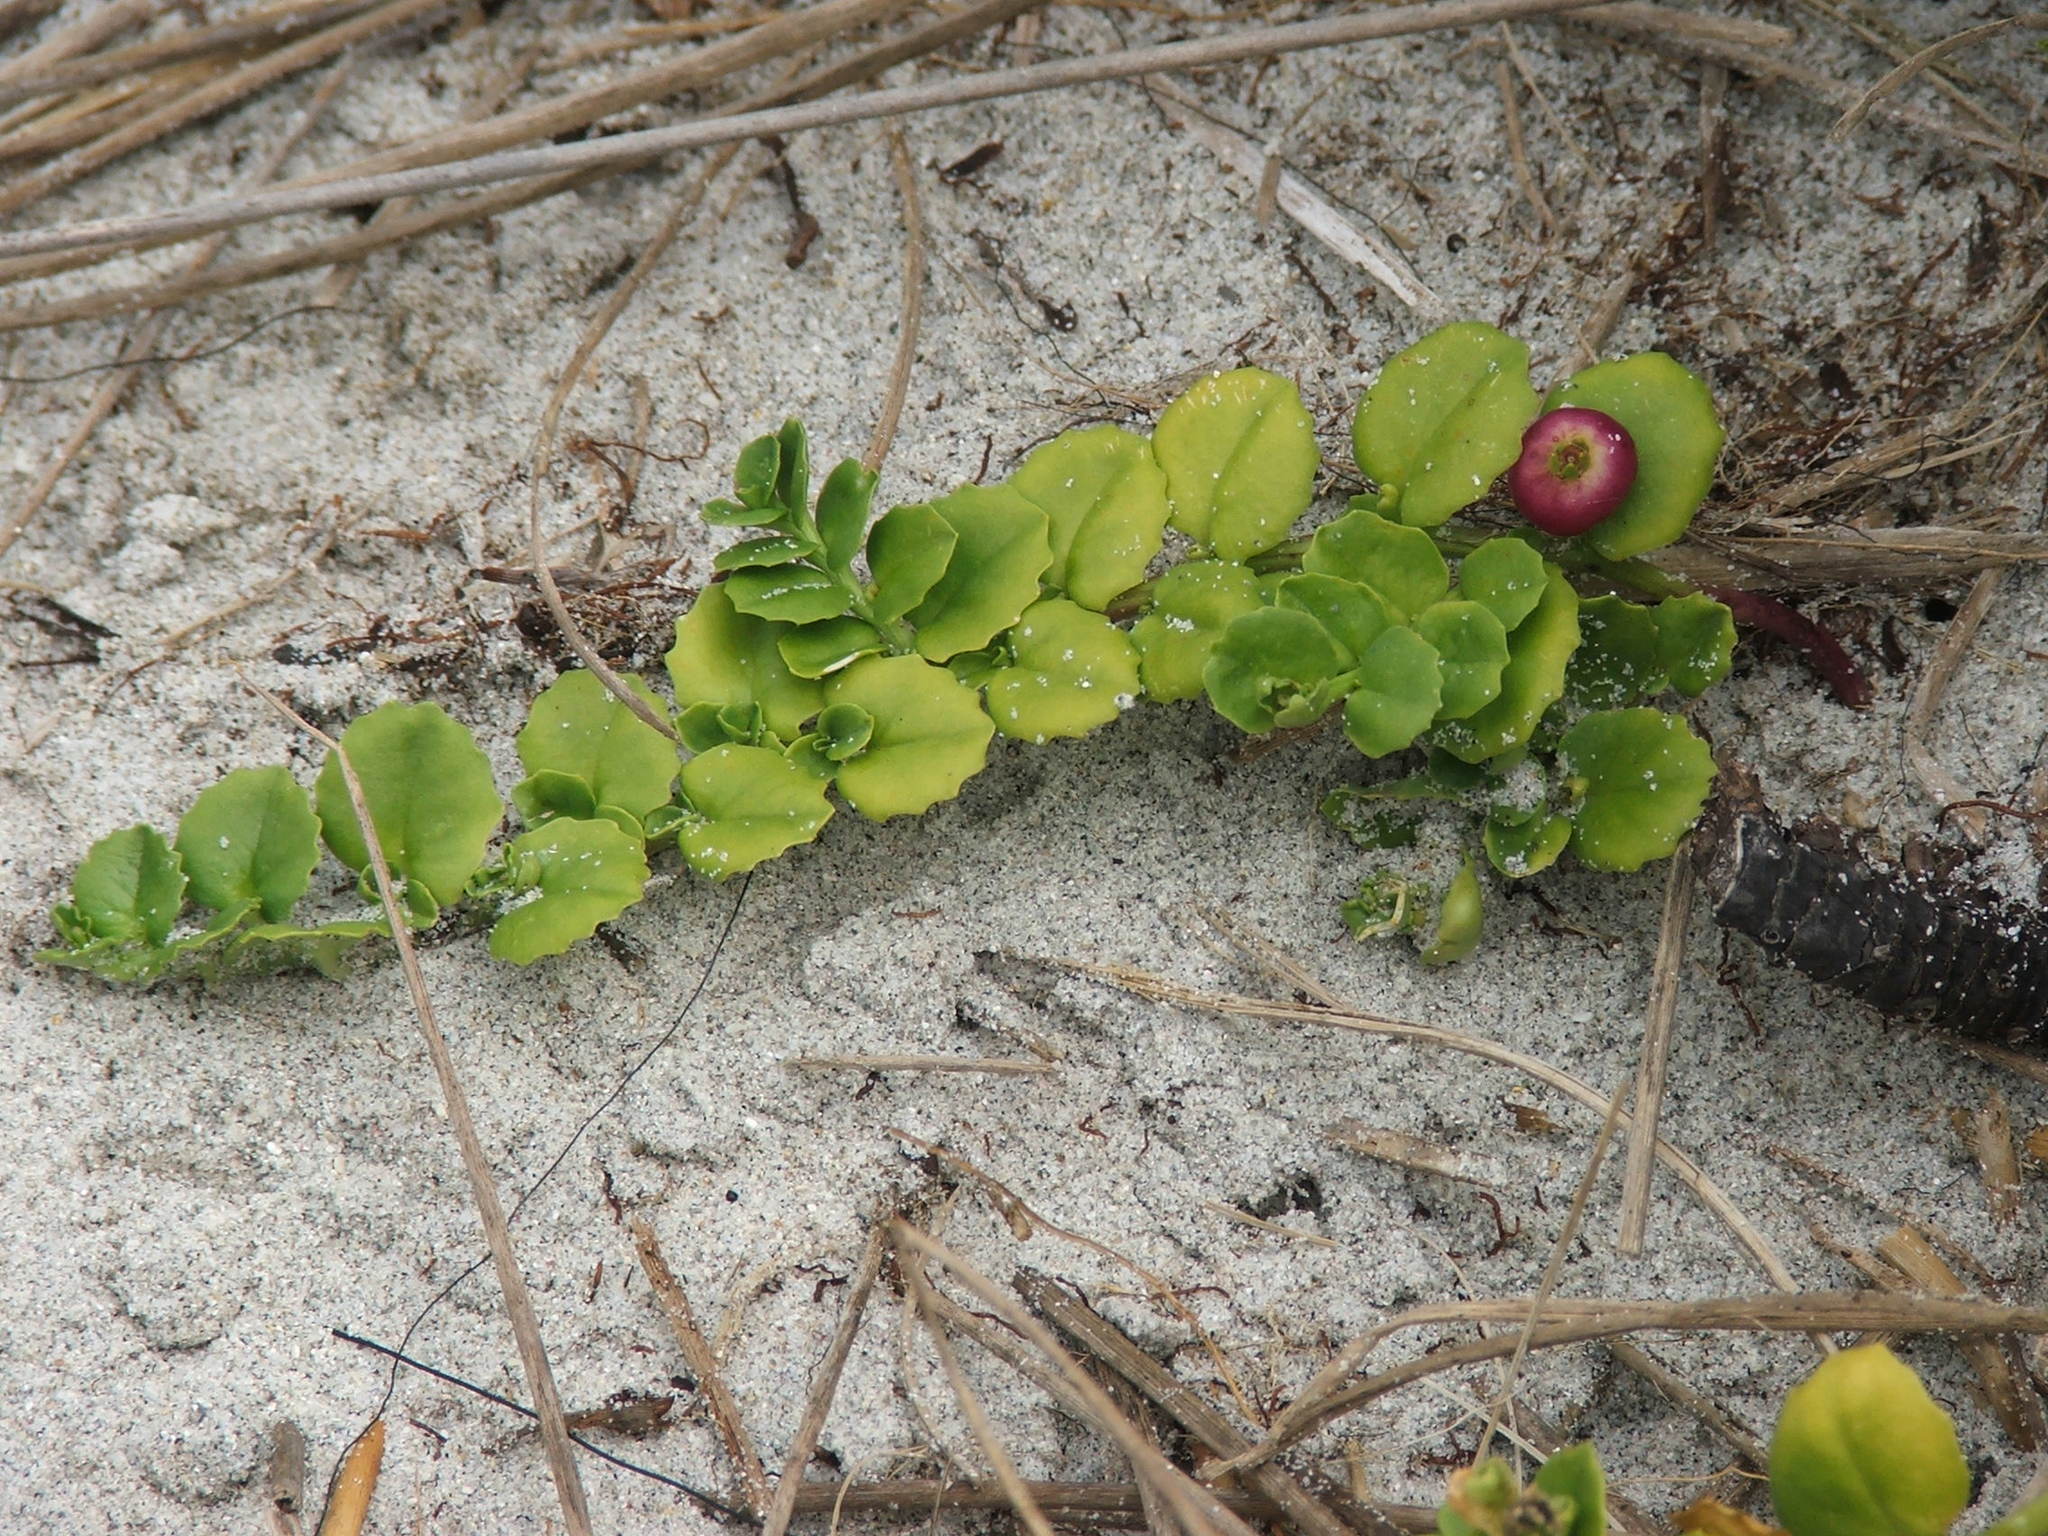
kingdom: Plantae
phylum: Tracheophyta
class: Magnoliopsida
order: Asterales
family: Campanulaceae
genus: Lobelia
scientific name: Lobelia arenaria
